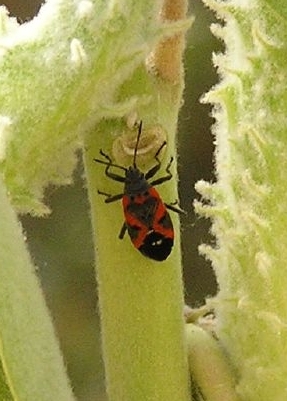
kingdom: Animalia
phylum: Arthropoda
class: Insecta
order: Hemiptera
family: Lygaeidae
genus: Lygaeus
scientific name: Lygaeus kalmii
